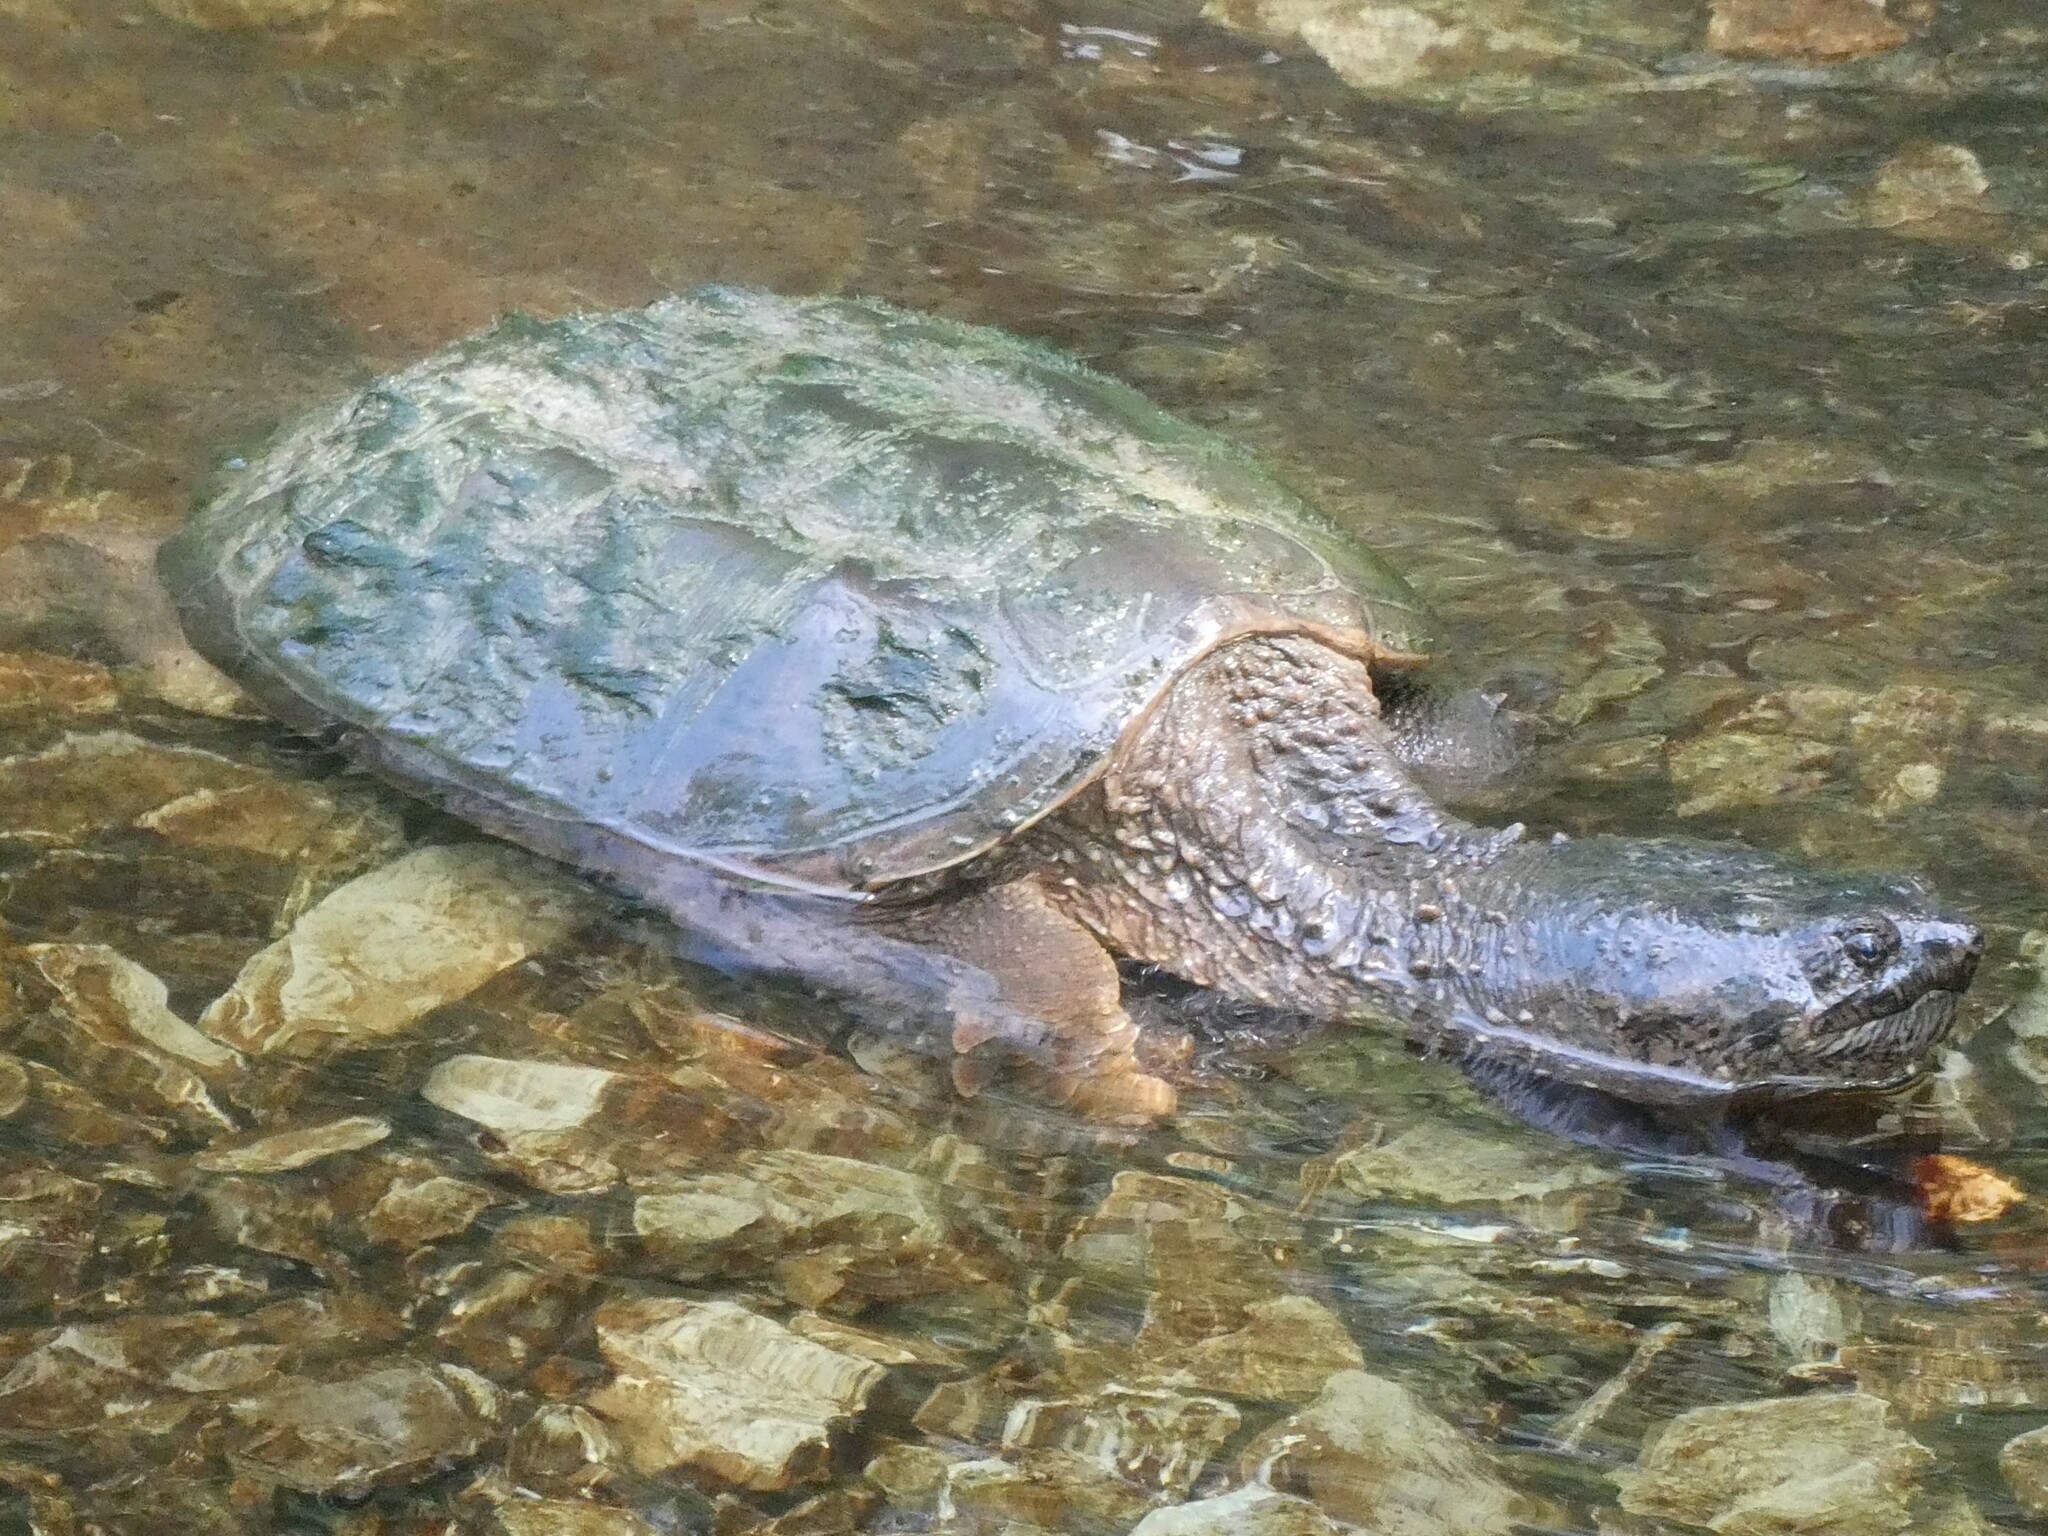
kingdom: Animalia
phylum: Chordata
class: Testudines
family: Chelydridae
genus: Chelydra
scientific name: Chelydra serpentina
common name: Common snapping turtle
